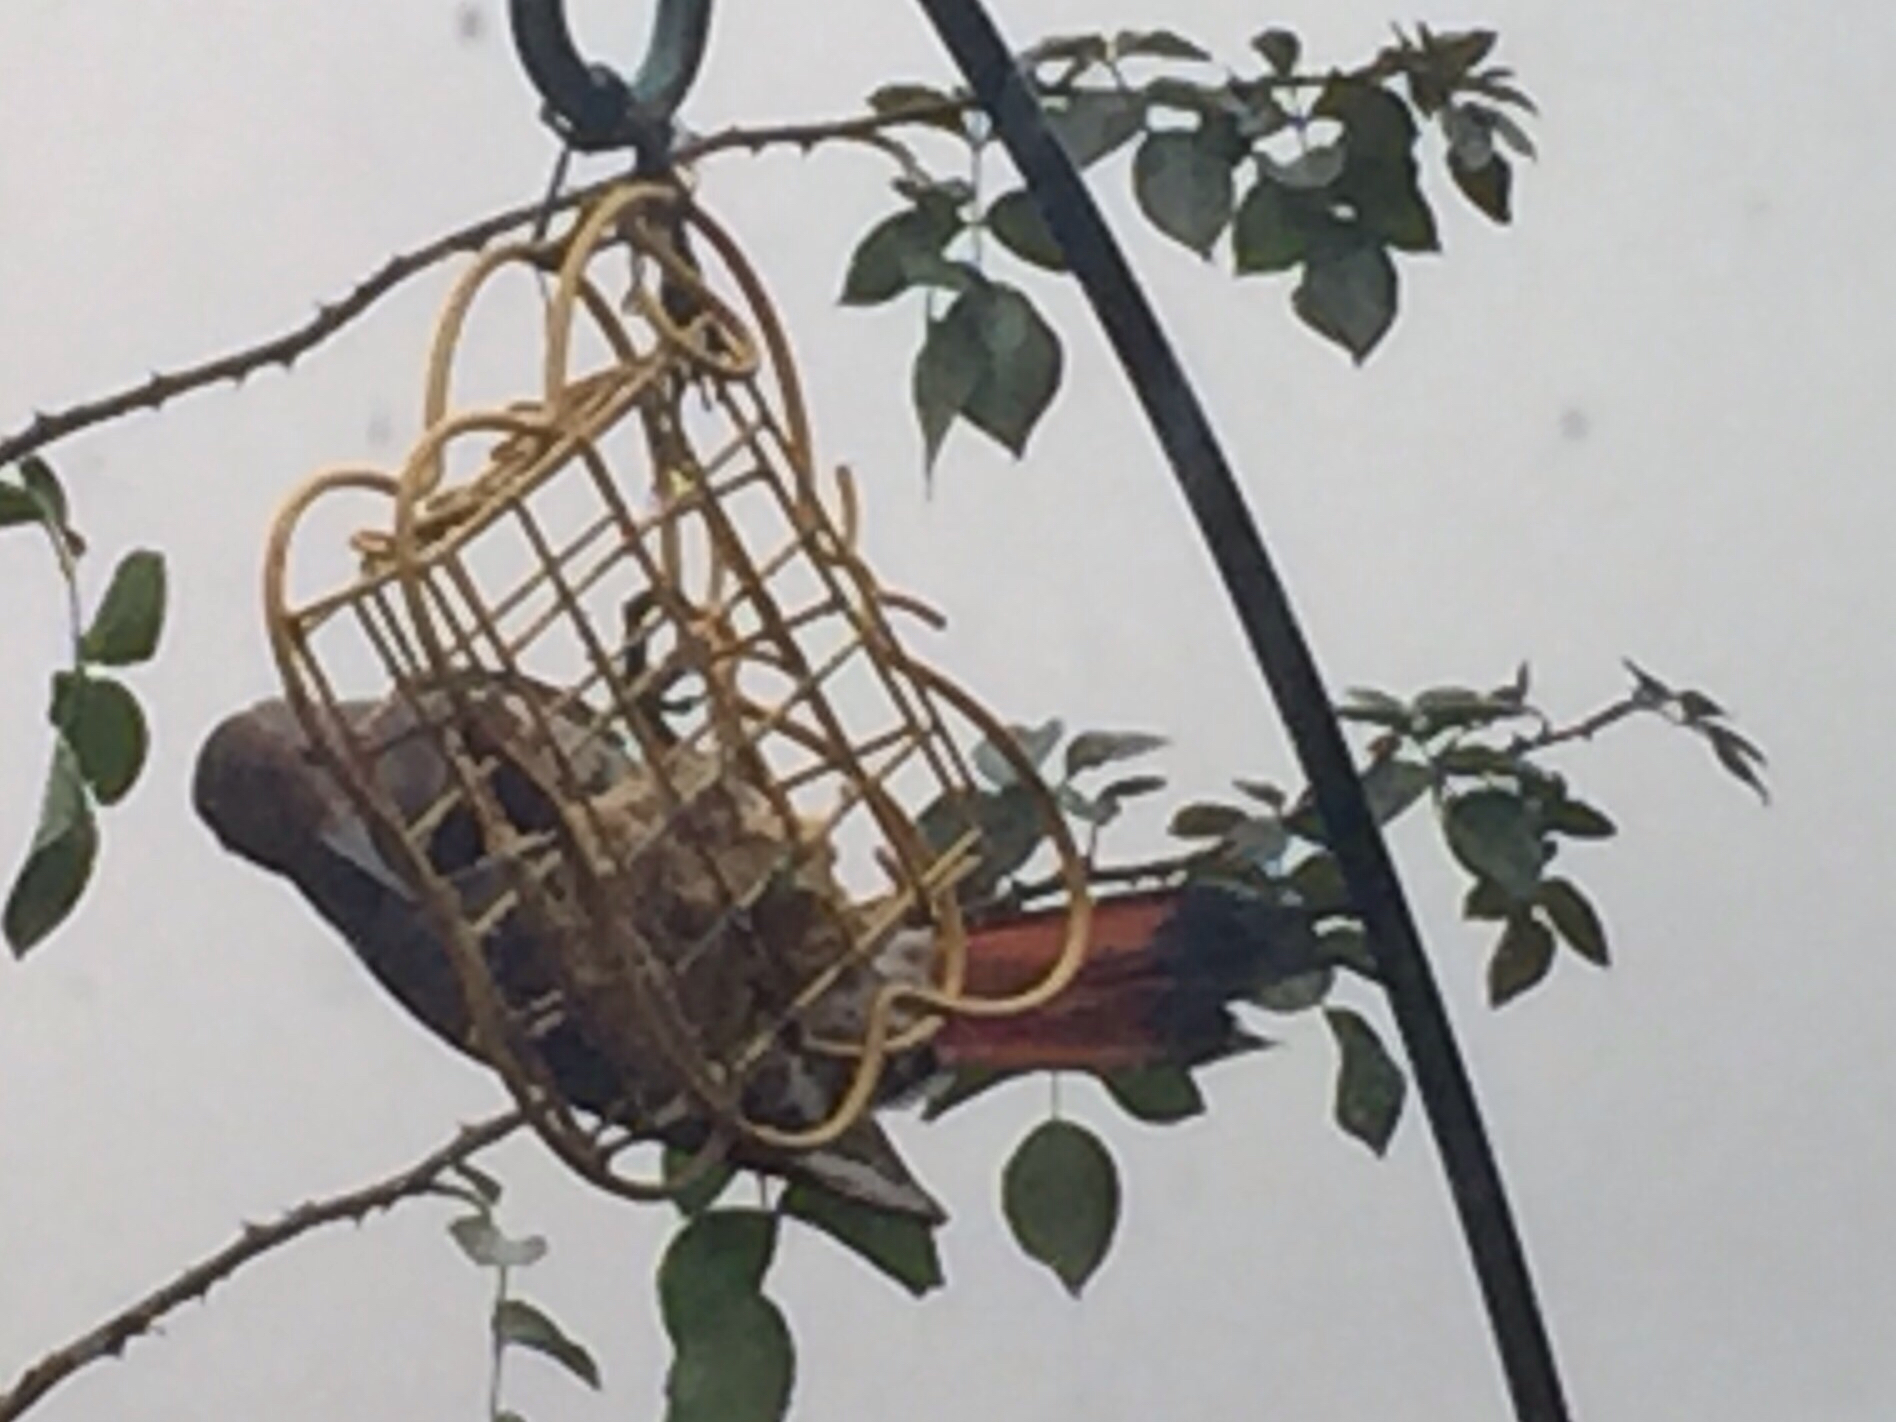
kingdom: Animalia
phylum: Chordata
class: Aves
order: Piciformes
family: Picidae
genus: Colaptes
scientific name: Colaptes auratus
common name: Northern flicker
